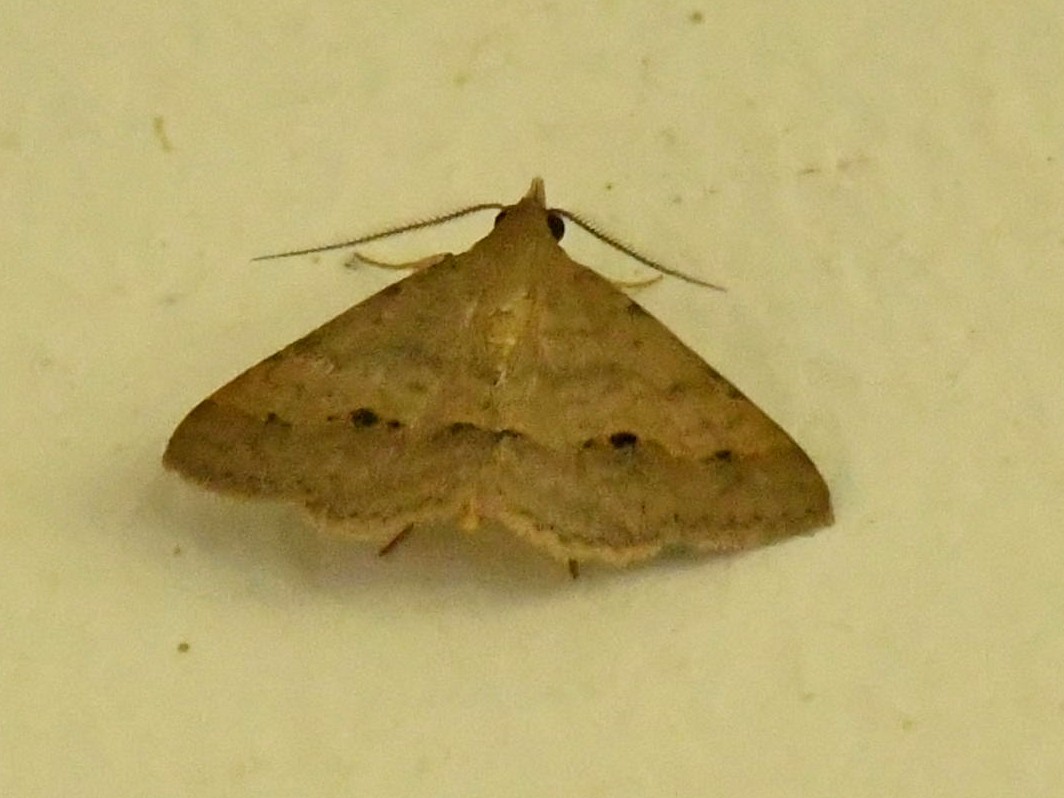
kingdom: Animalia
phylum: Arthropoda
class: Insecta
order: Lepidoptera
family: Erebidae
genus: Gesonia
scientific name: Gesonia obeditalis
